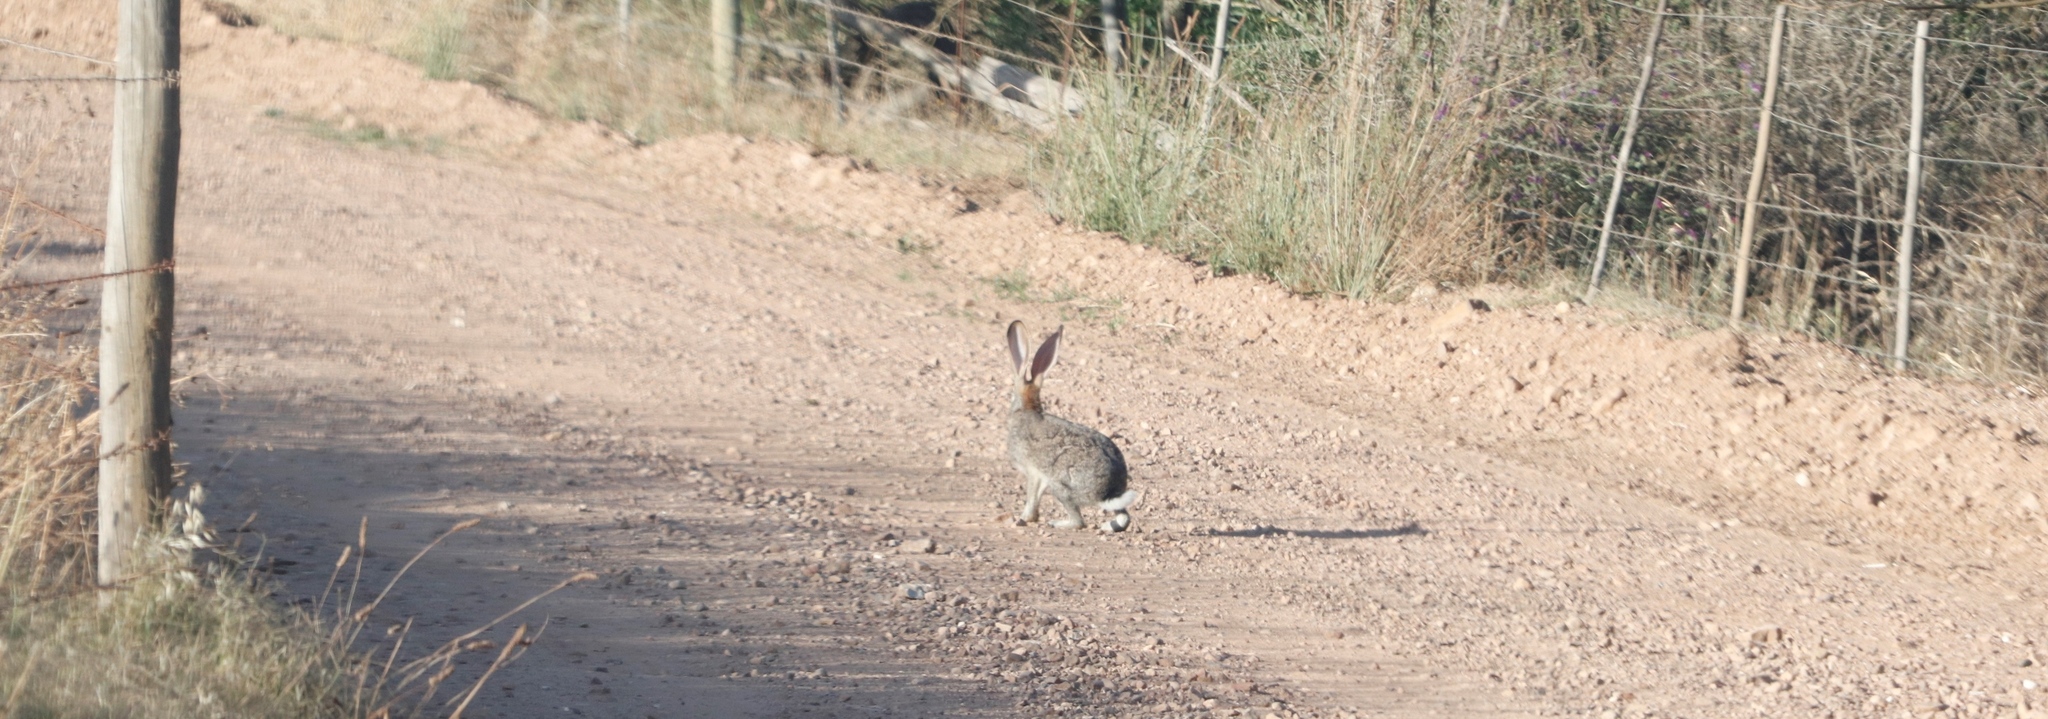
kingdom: Animalia
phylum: Chordata
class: Mammalia
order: Lagomorpha
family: Leporidae
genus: Lepus
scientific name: Lepus saxatilis
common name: Scrub hare
